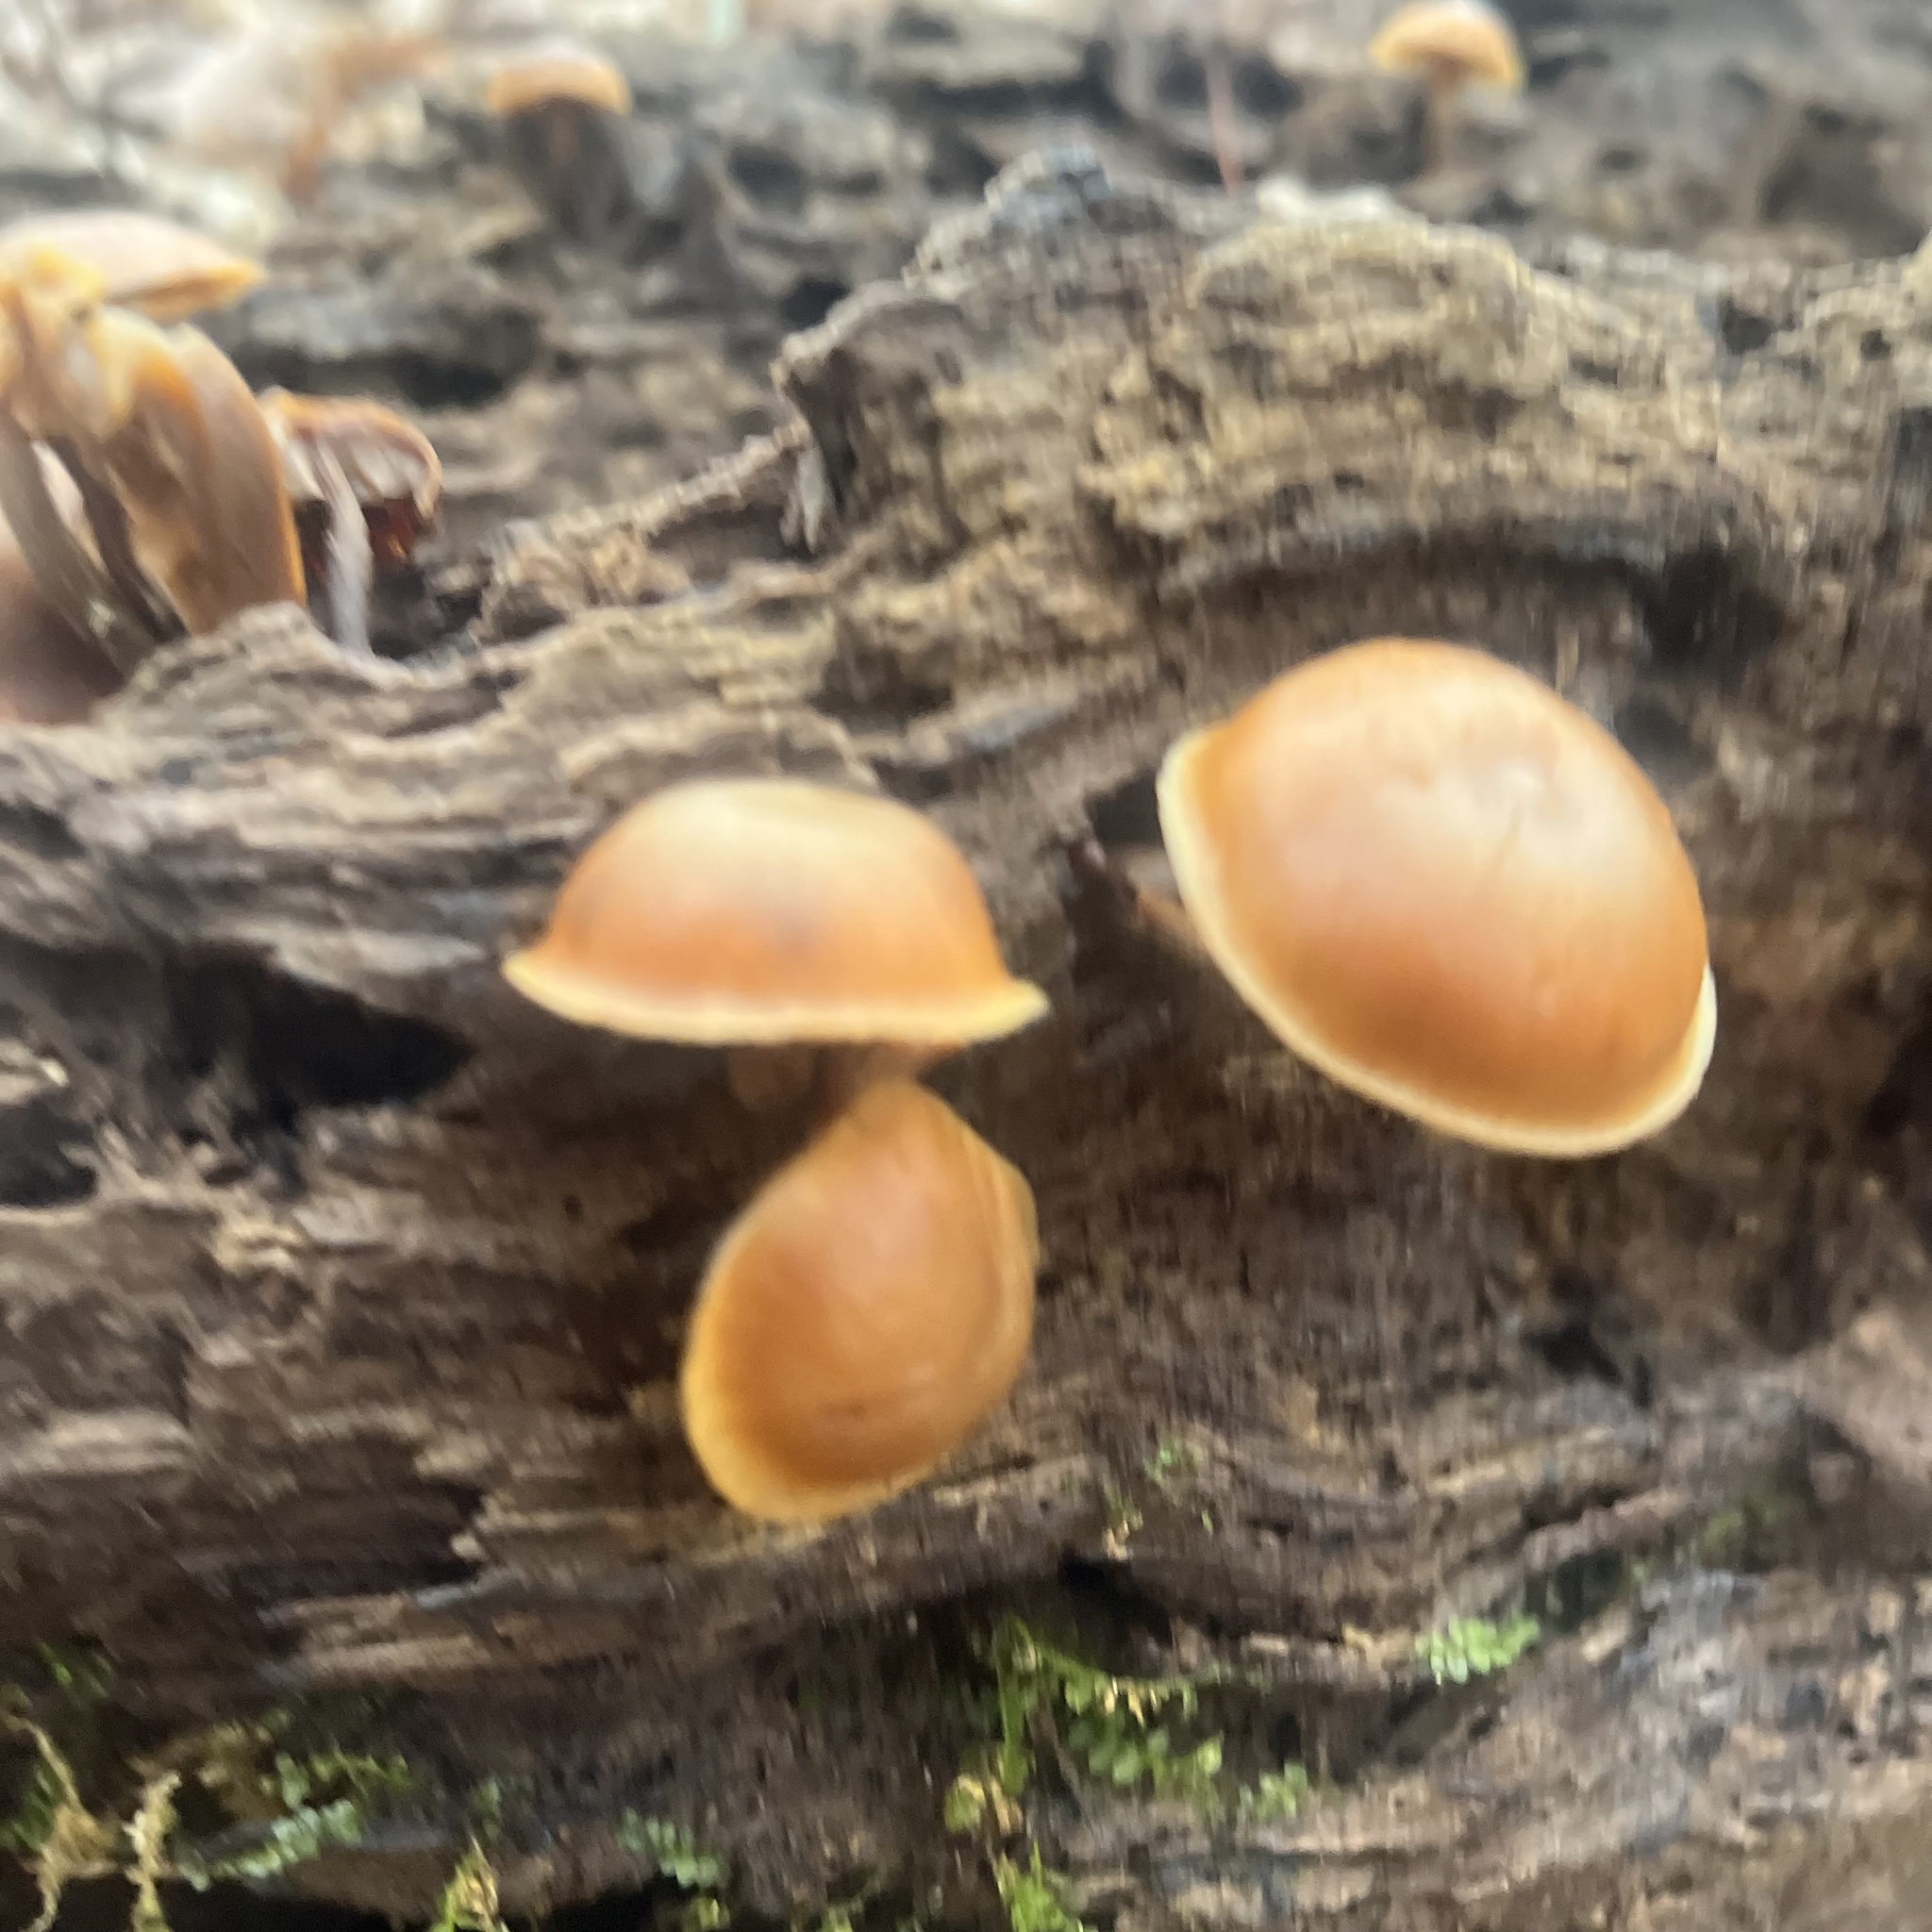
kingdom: Fungi
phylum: Basidiomycota
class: Agaricomycetes
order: Agaricales
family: Hymenogastraceae
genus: Galerina
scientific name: Galerina marginata
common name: Funeral bell
